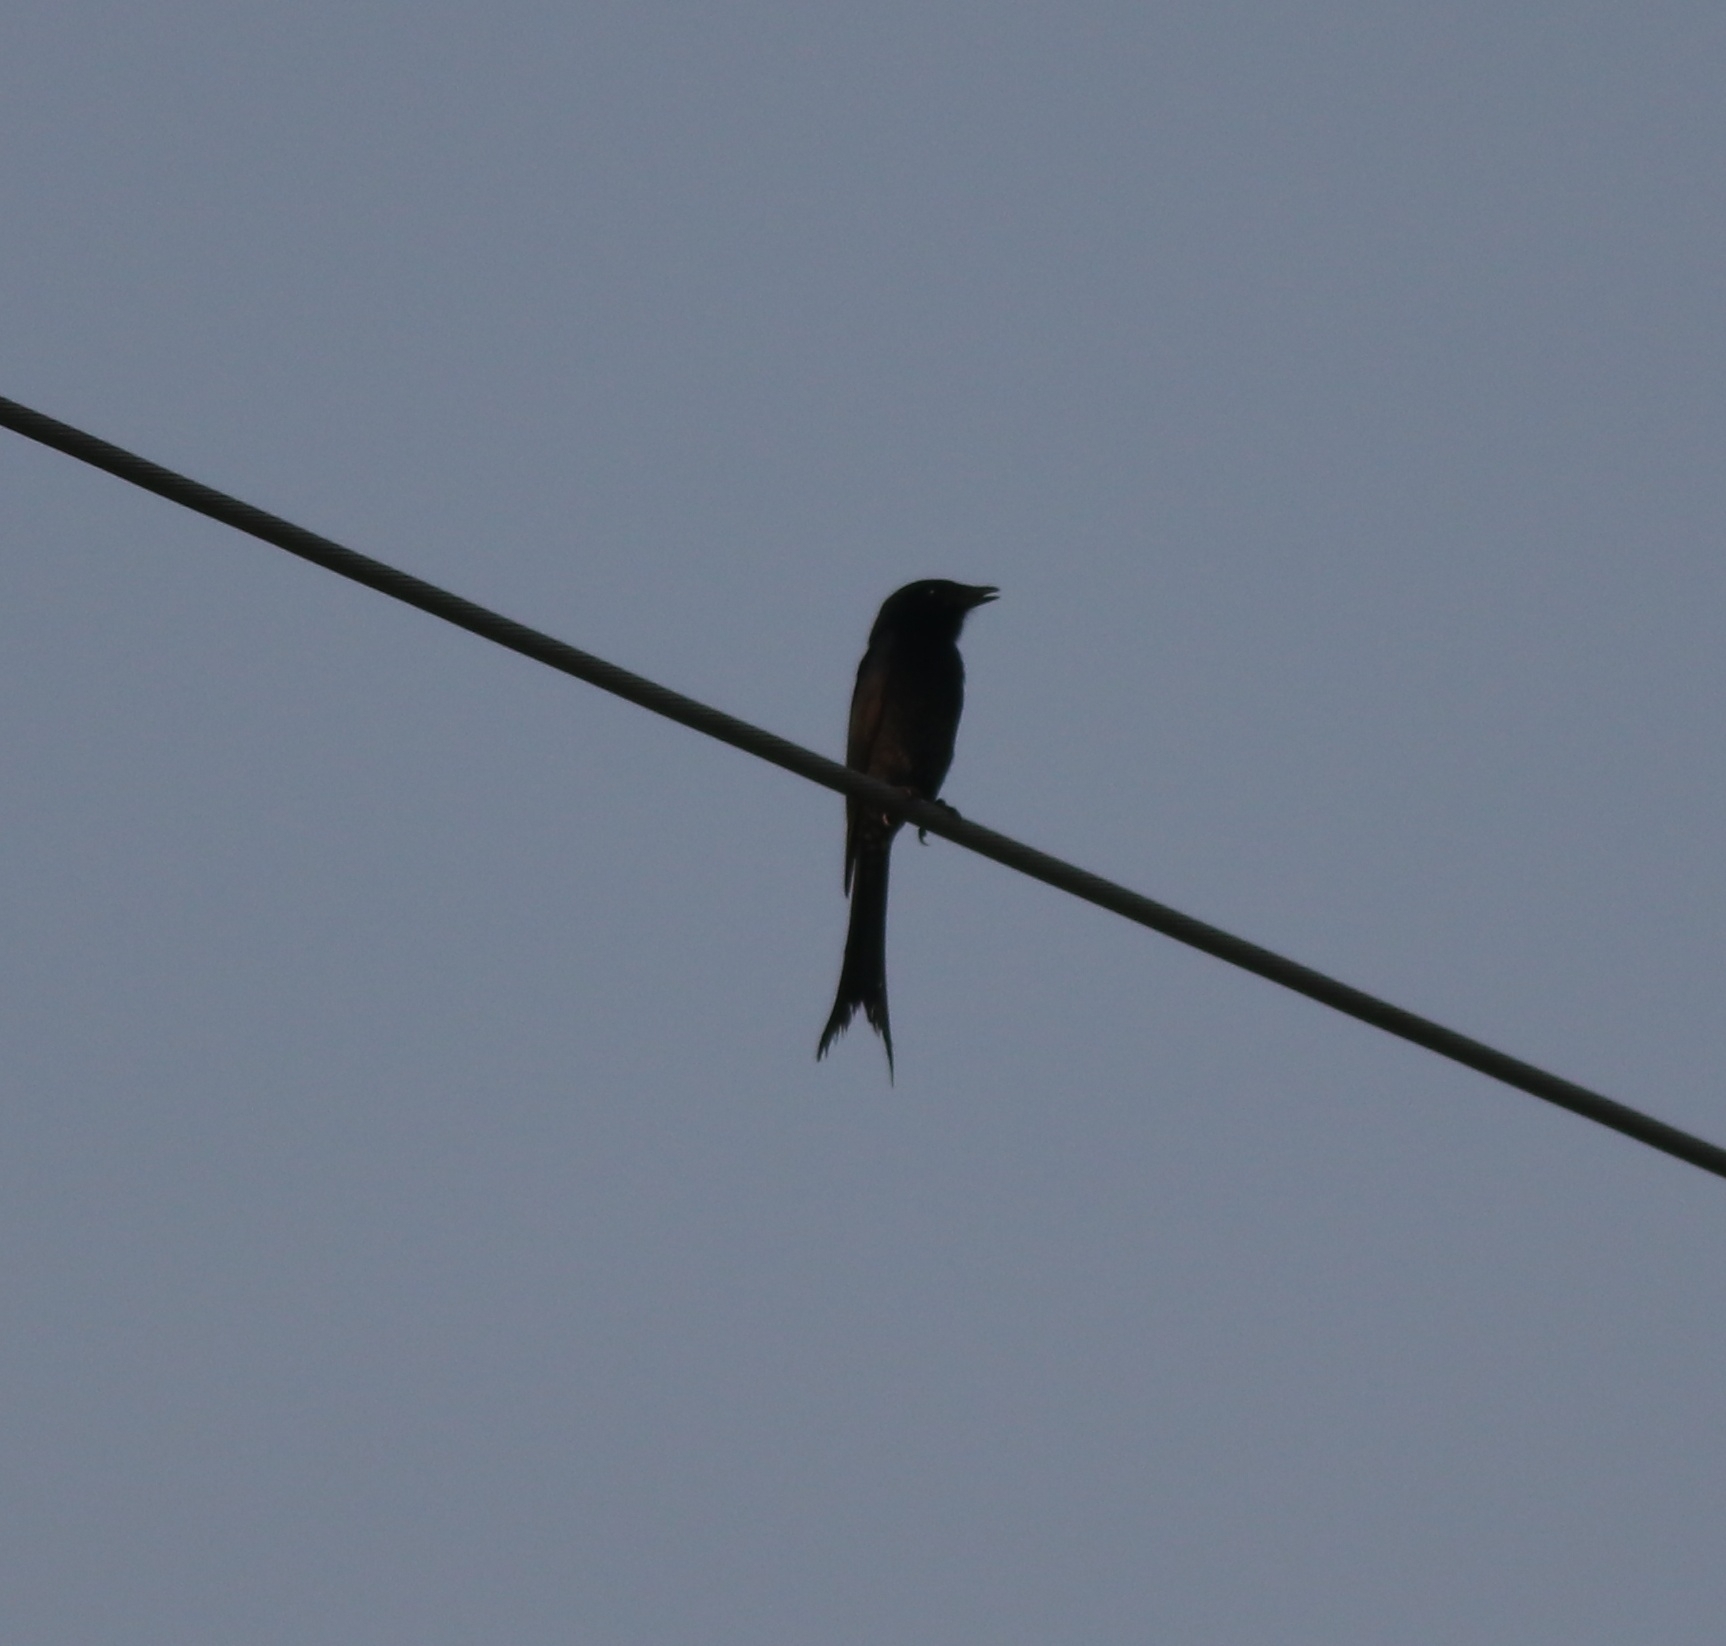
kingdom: Animalia
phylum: Chordata
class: Aves
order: Passeriformes
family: Dicruridae
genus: Dicrurus
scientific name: Dicrurus macrocercus
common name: Black drongo
